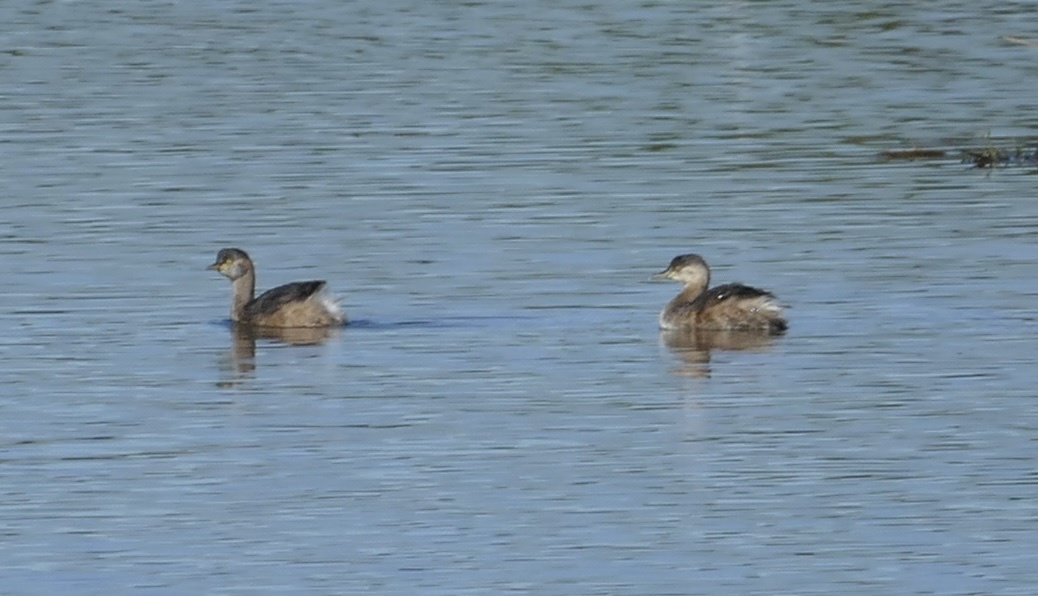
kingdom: Animalia
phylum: Chordata
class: Aves
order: Podicipediformes
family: Podicipedidae
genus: Tachybaptus
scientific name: Tachybaptus novaehollandiae
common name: Australasian grebe
